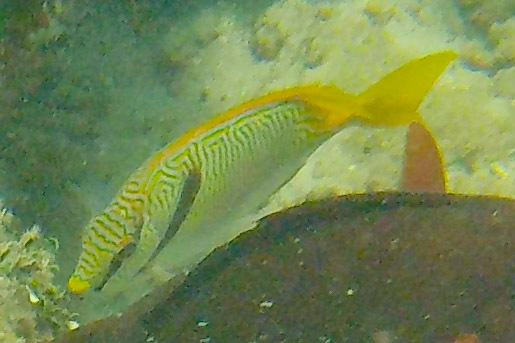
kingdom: Animalia
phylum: Chordata
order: Perciformes
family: Siganidae
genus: Siganus
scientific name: Siganus doliatus
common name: Barred spinefoot
